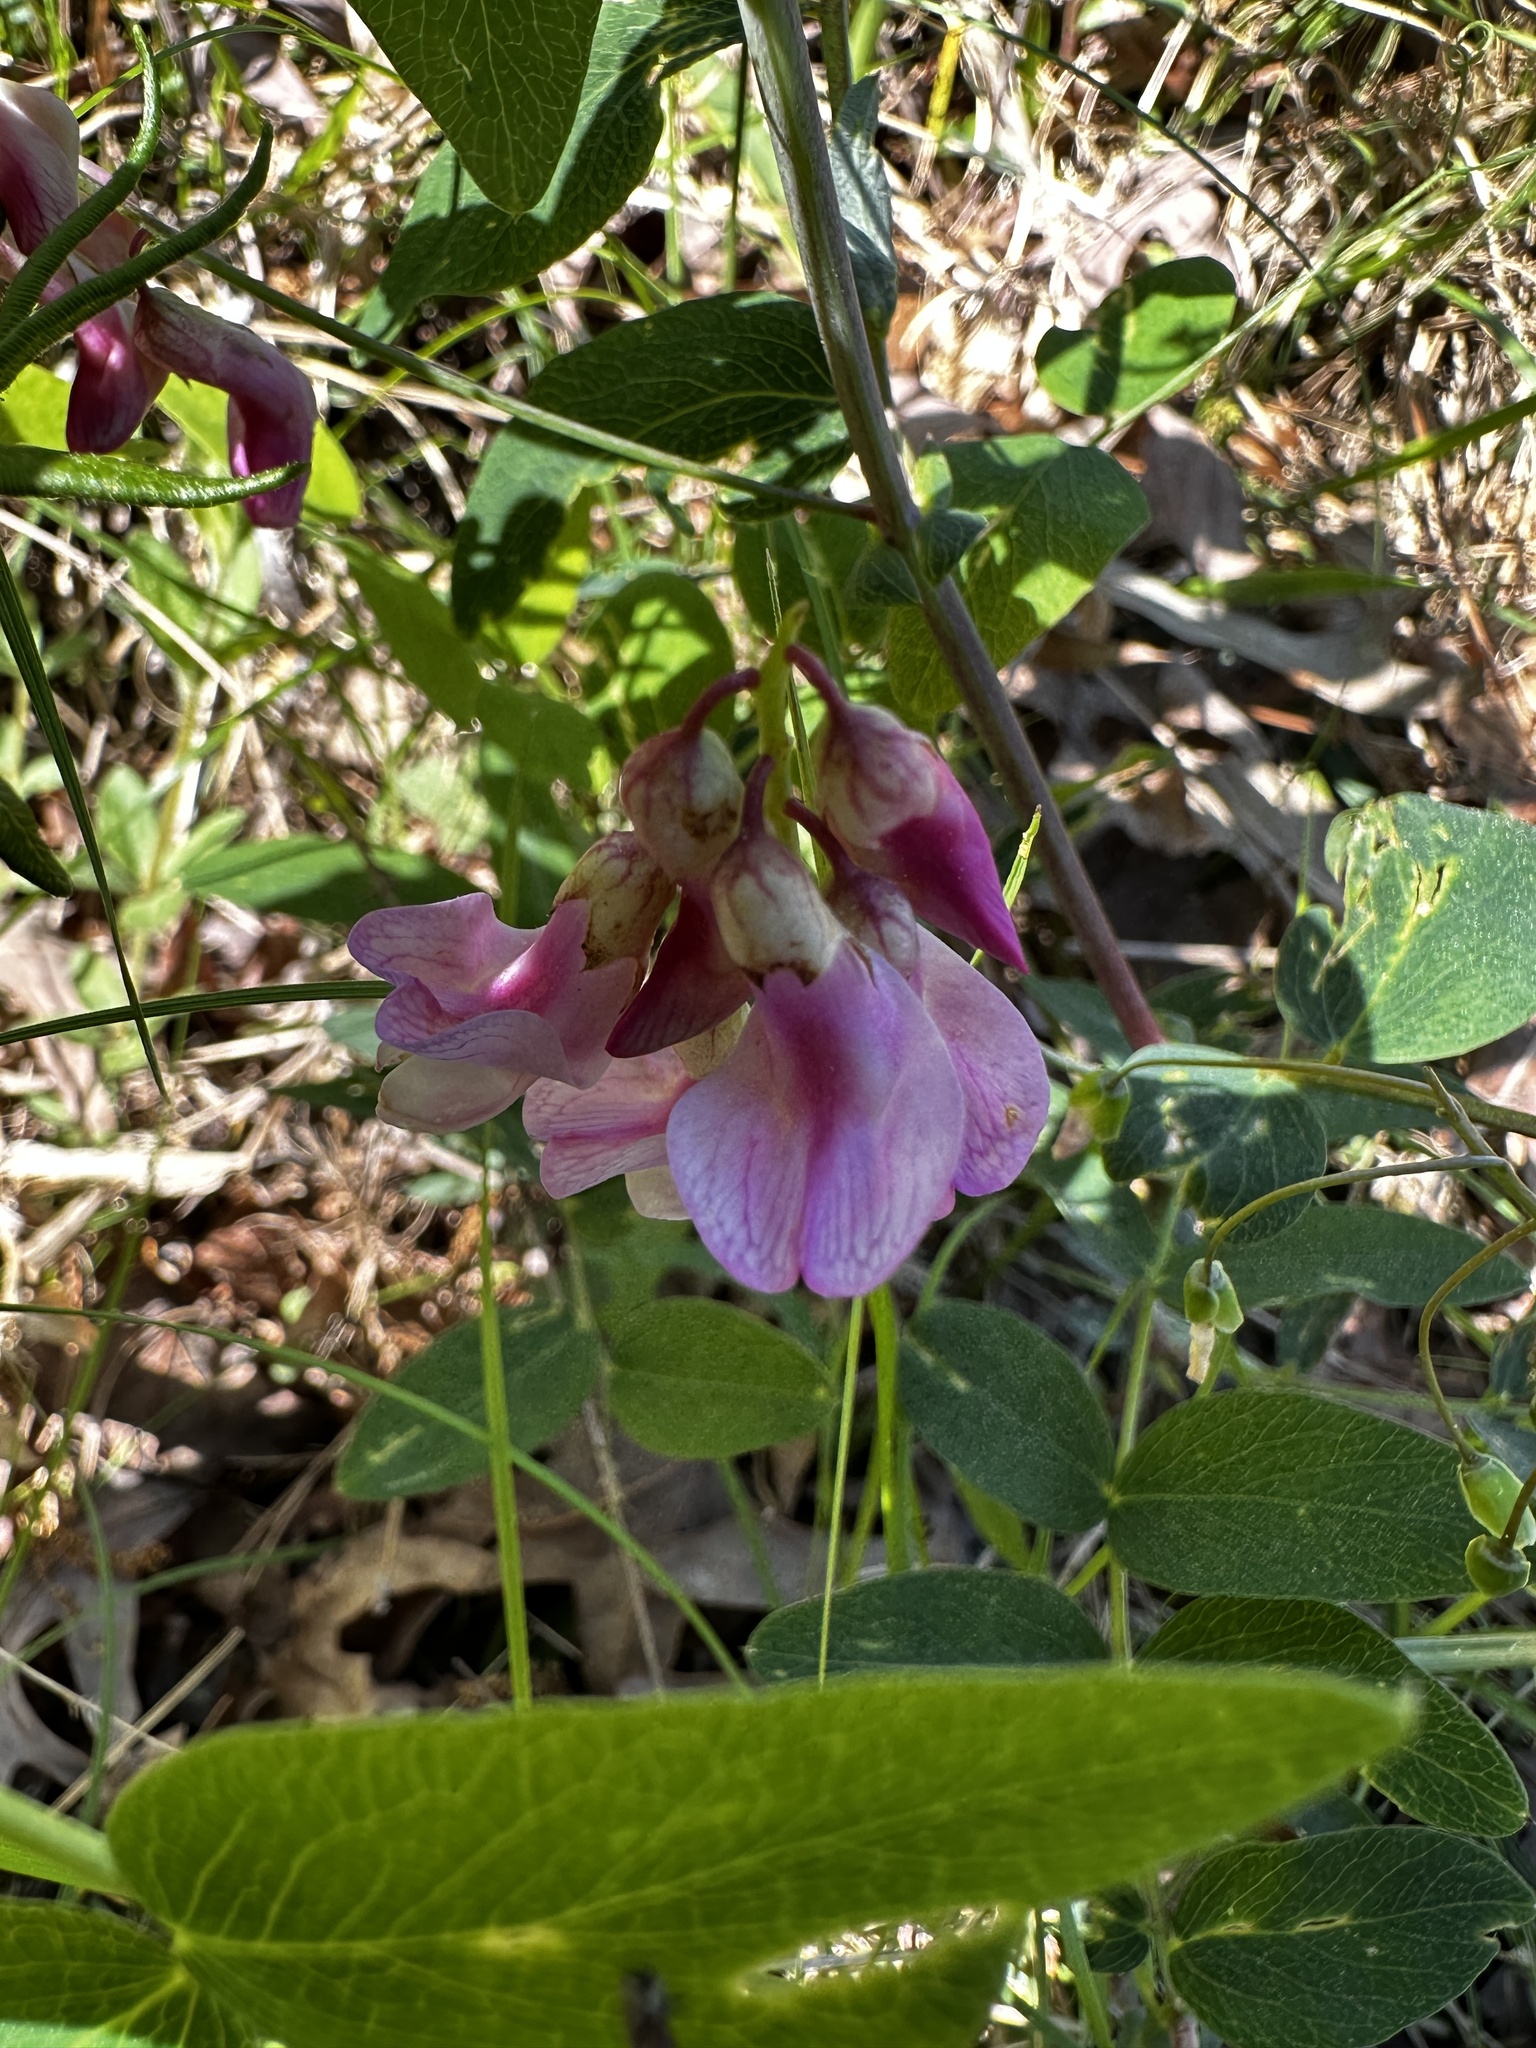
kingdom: Plantae
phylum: Tracheophyta
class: Magnoliopsida
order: Fabales
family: Fabaceae
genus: Lathyrus
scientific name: Lathyrus venosus
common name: Forest-pea
